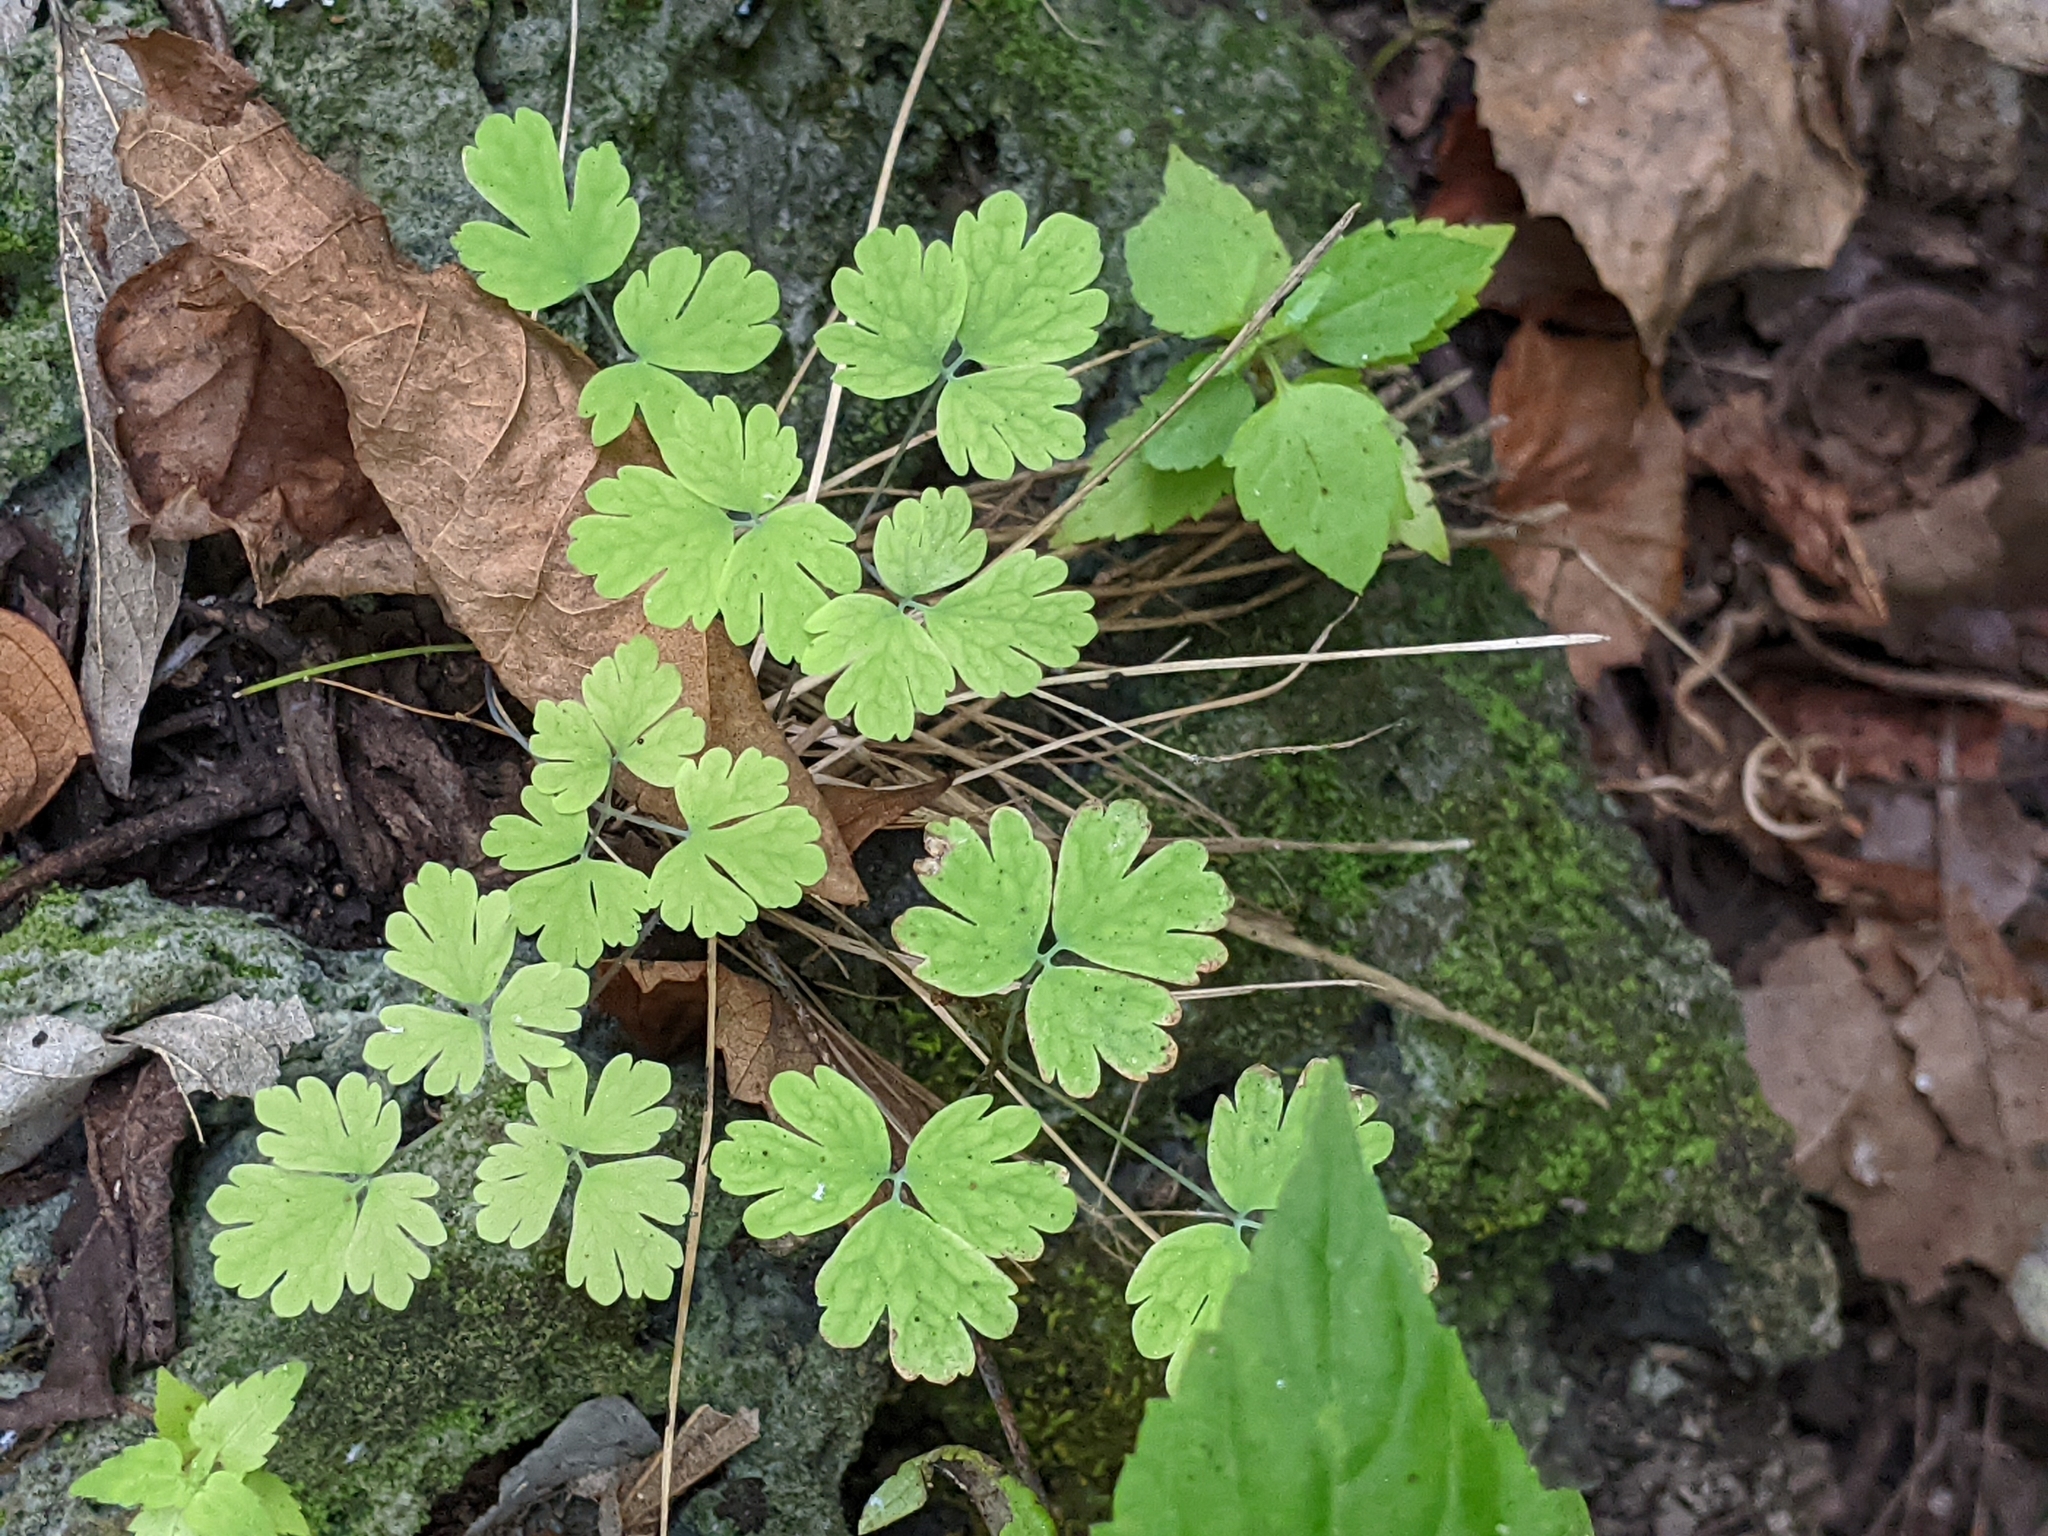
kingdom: Plantae
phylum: Tracheophyta
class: Magnoliopsida
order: Ranunculales
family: Ranunculaceae
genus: Aquilegia
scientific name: Aquilegia canadensis
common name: American columbine
